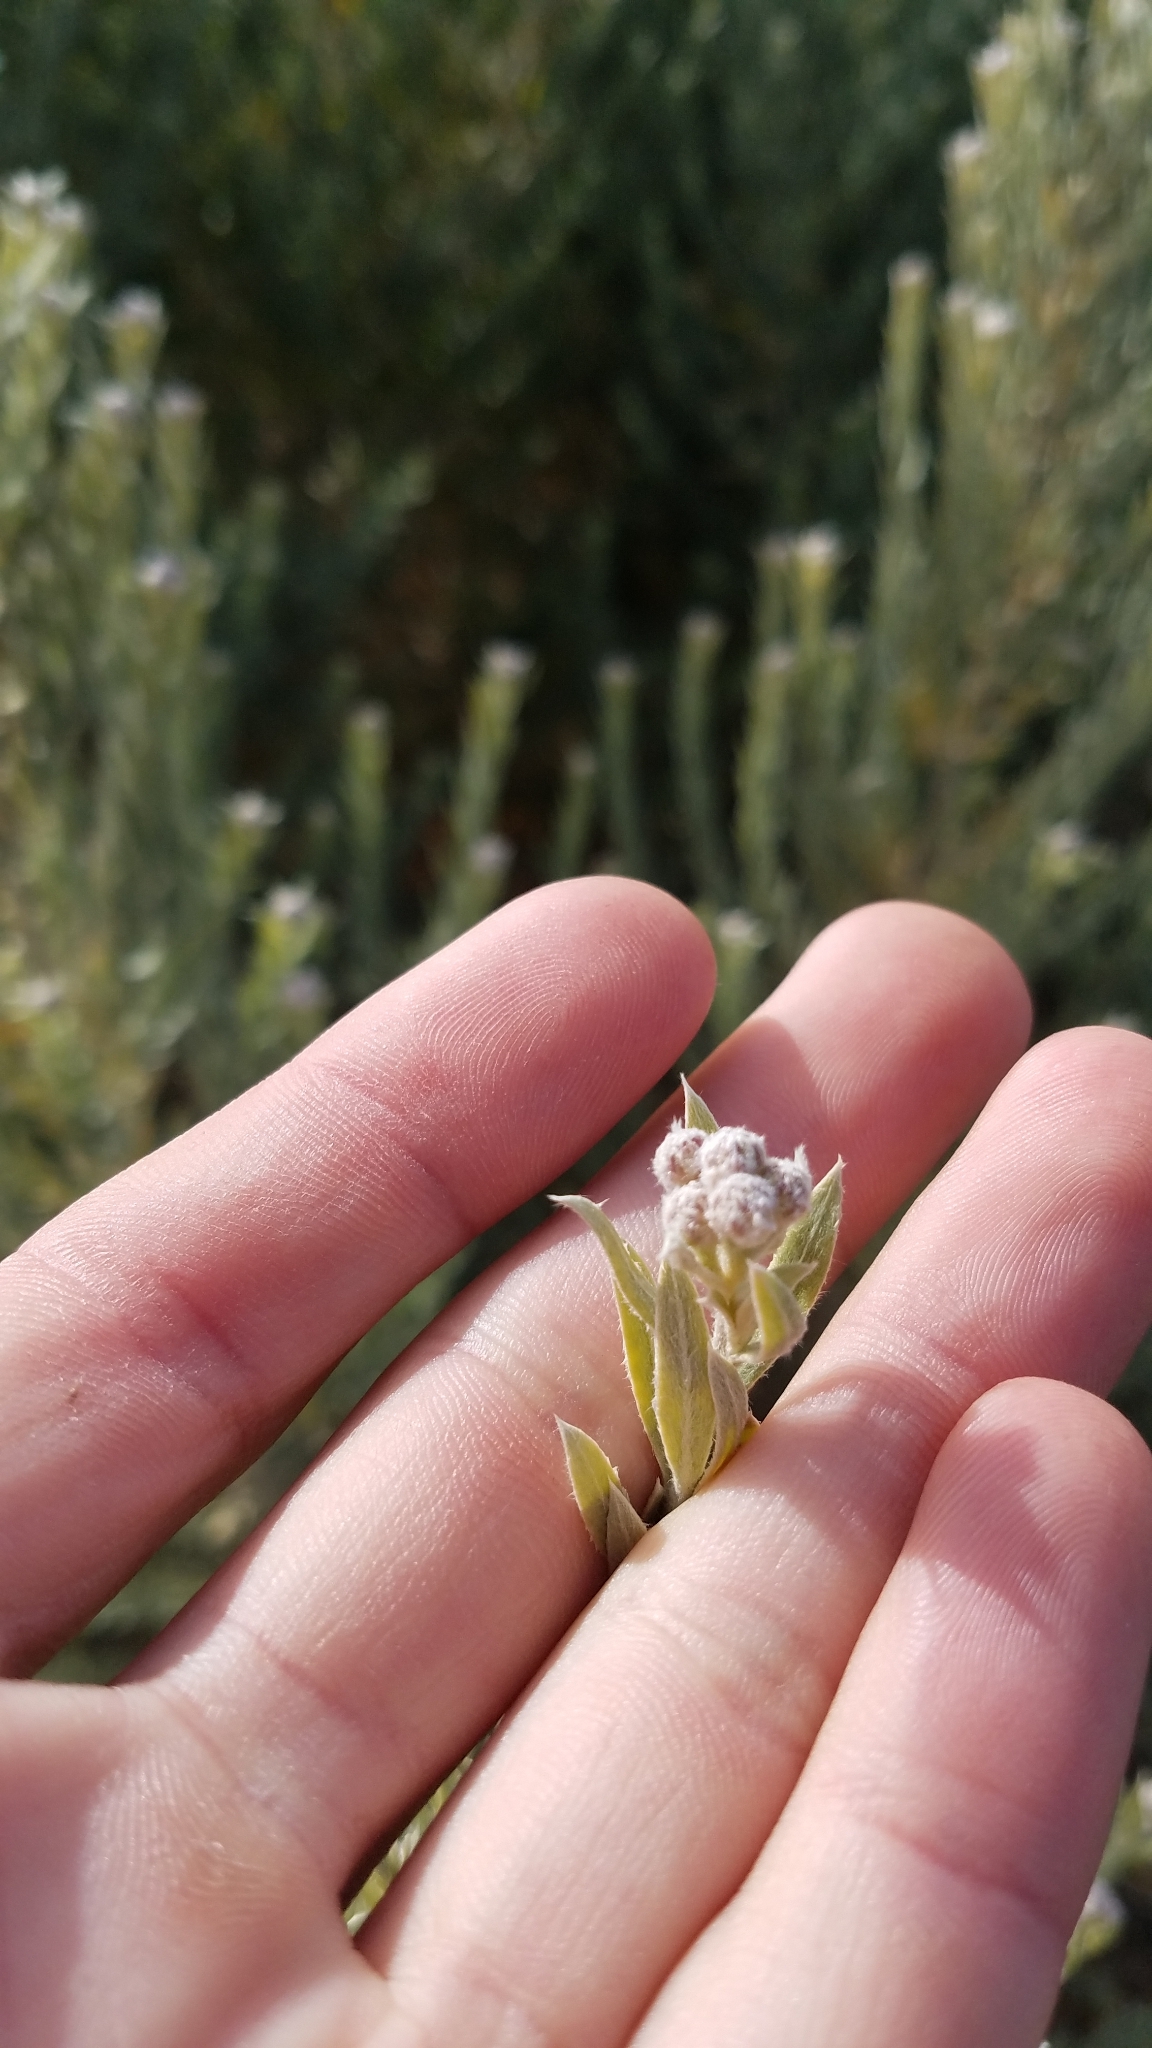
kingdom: Plantae
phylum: Tracheophyta
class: Magnoliopsida
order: Asterales
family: Asteraceae
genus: Pluchea
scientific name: Pluchea sericea
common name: Arrow-weed
